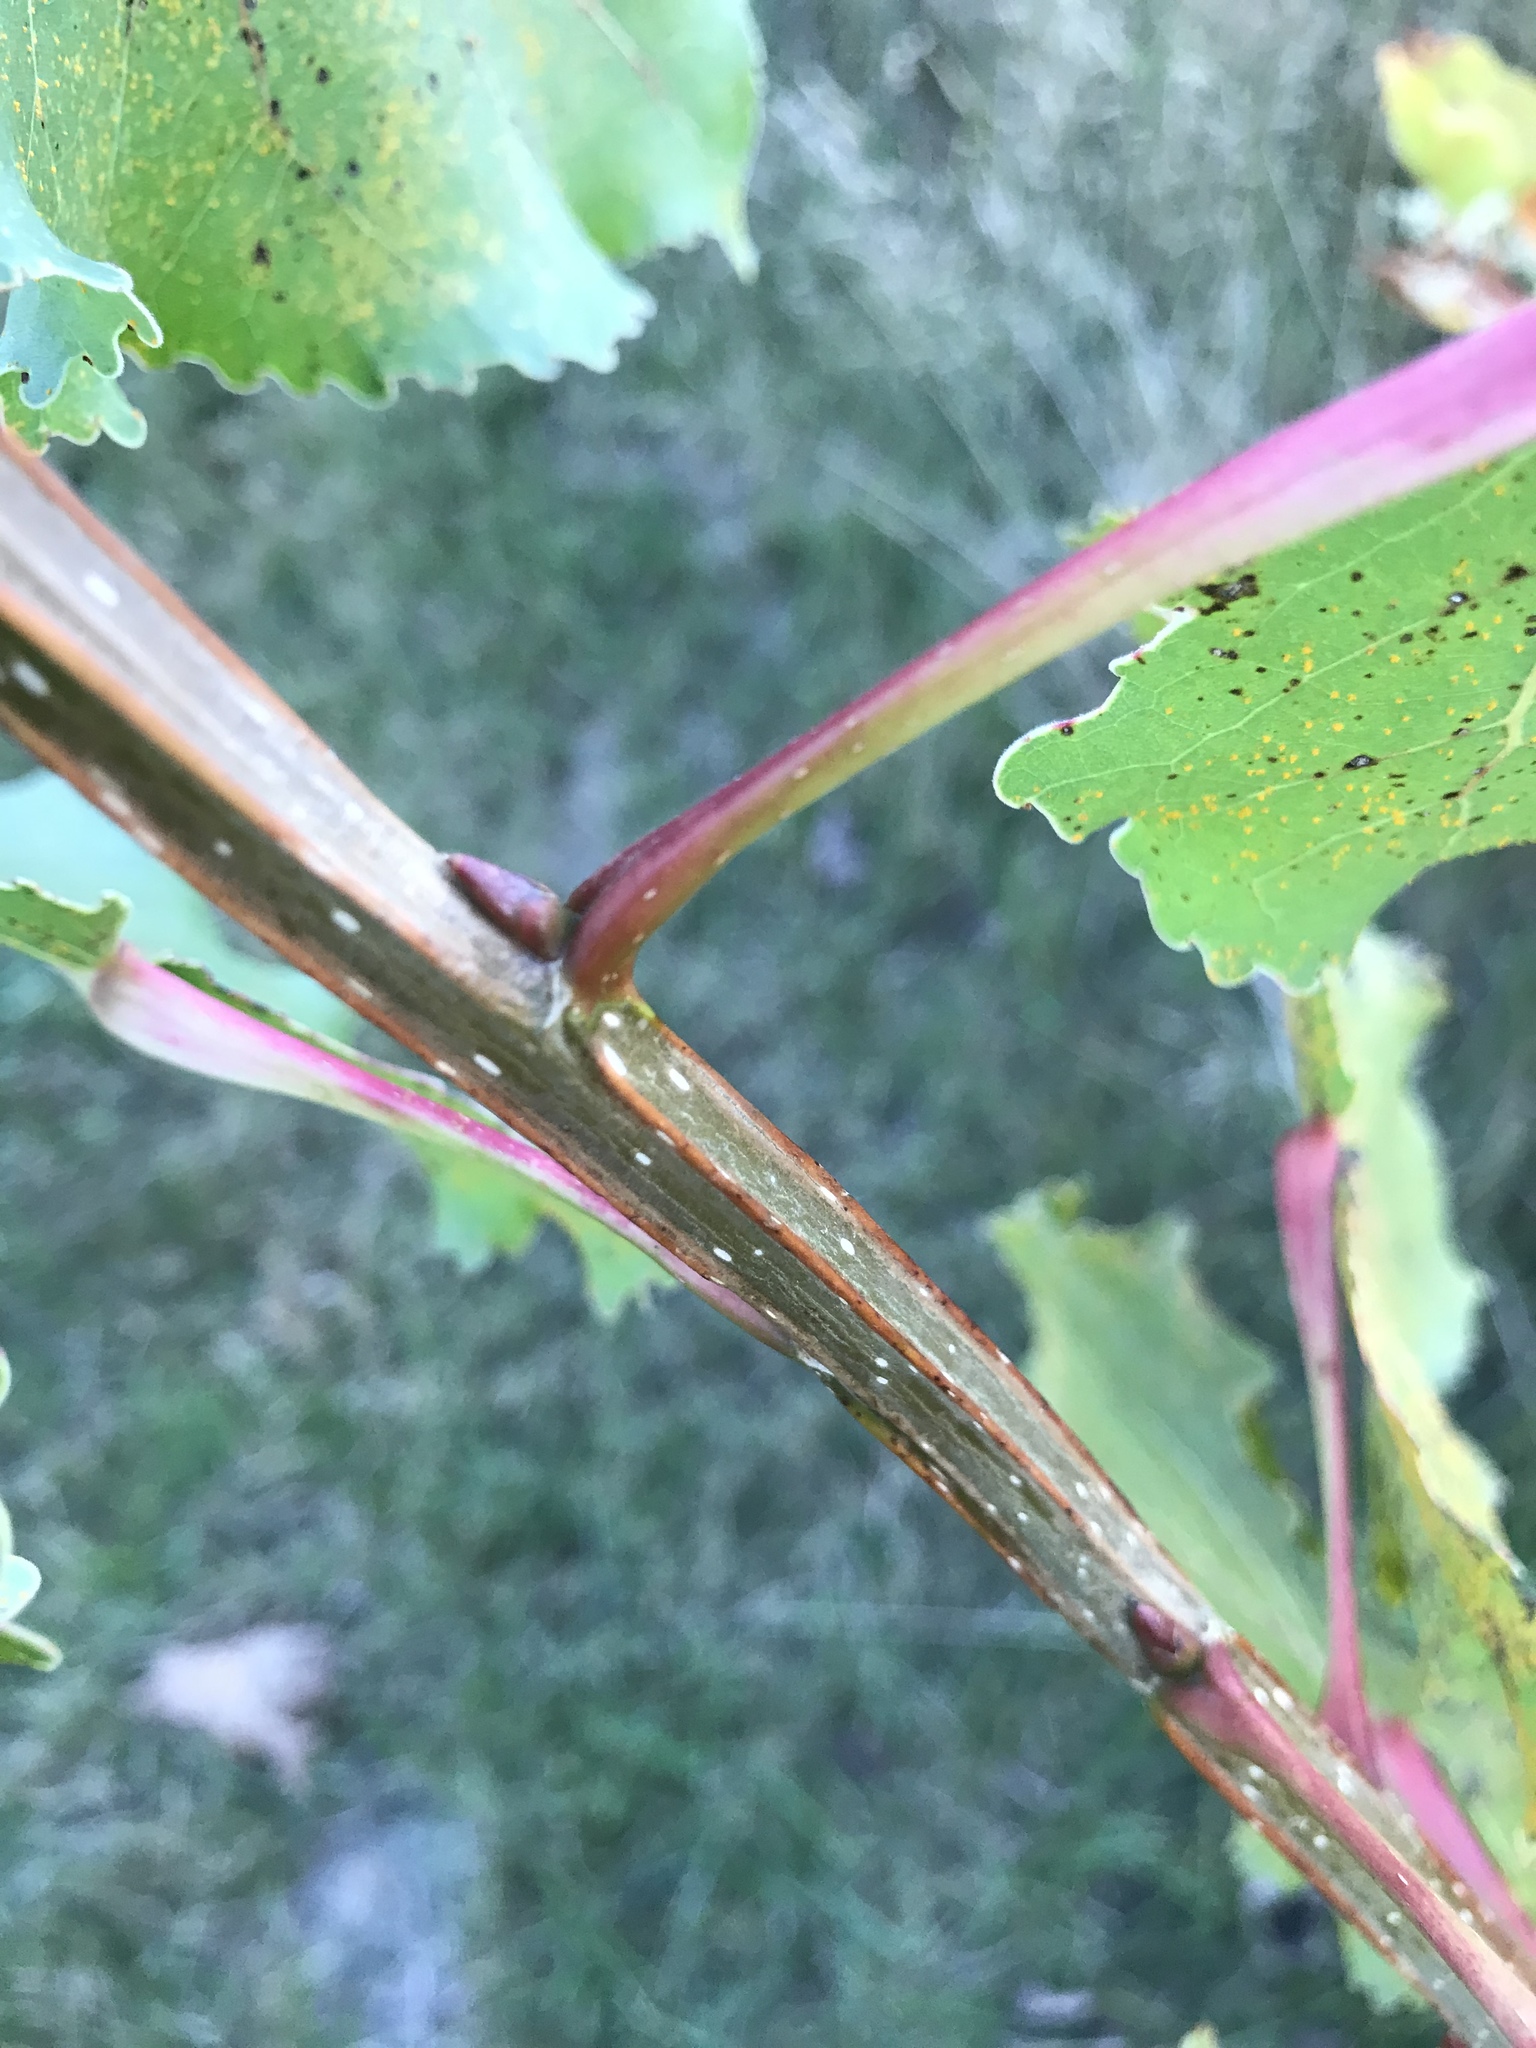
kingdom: Plantae
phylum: Tracheophyta
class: Magnoliopsida
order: Malpighiales
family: Salicaceae
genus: Populus
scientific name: Populus deltoides
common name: Eastern cottonwood
